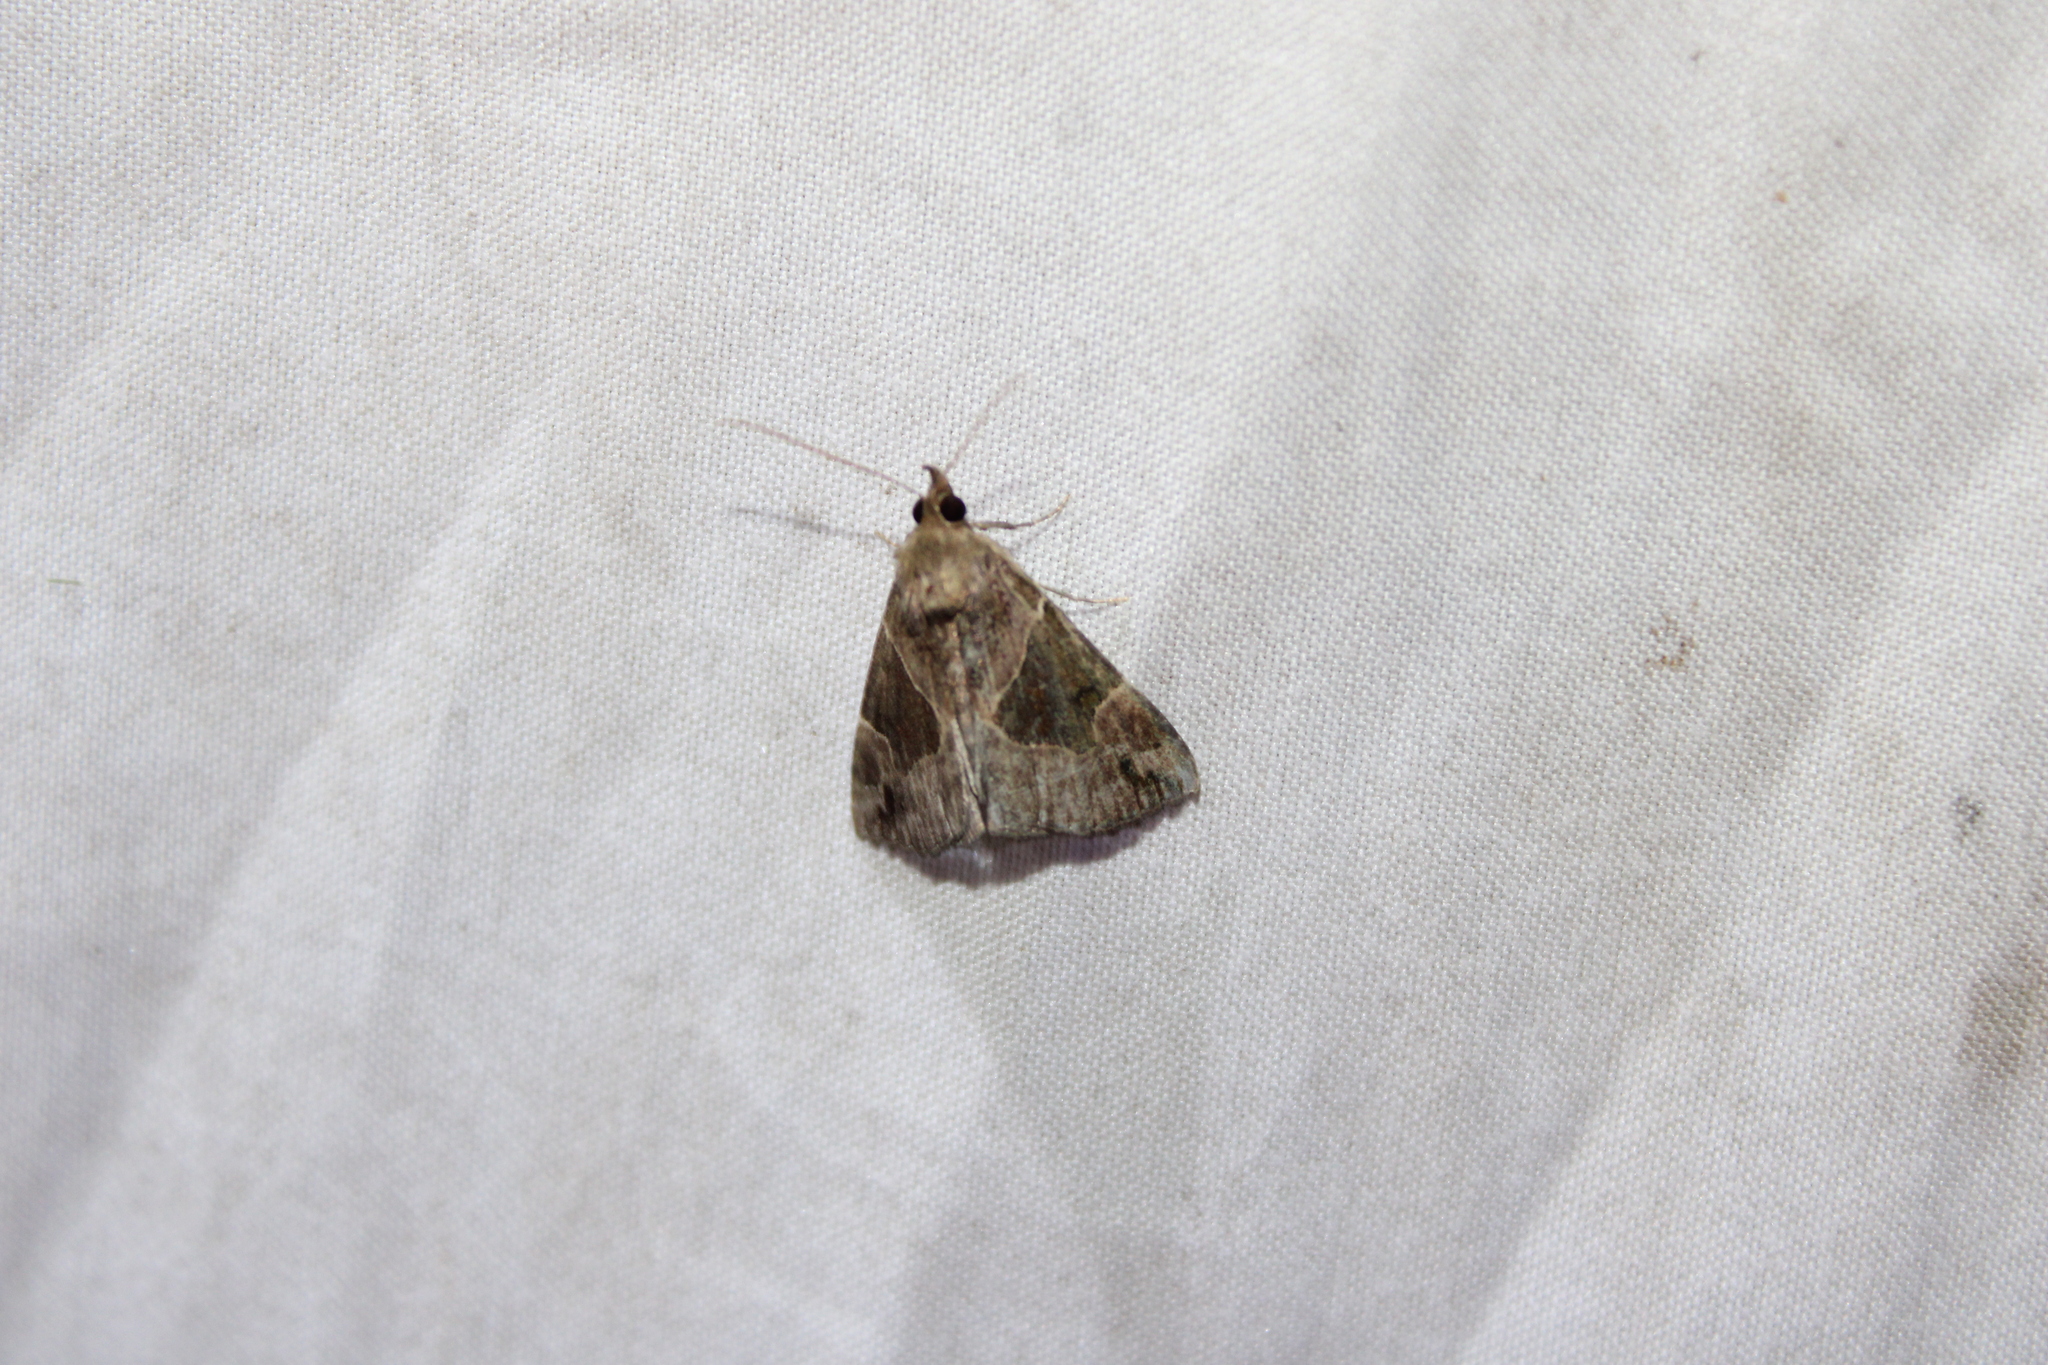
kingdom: Animalia
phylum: Arthropoda
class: Insecta
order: Lepidoptera
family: Erebidae
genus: Hypena
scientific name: Hypena manalis
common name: Flowing-line bomolocha moth
